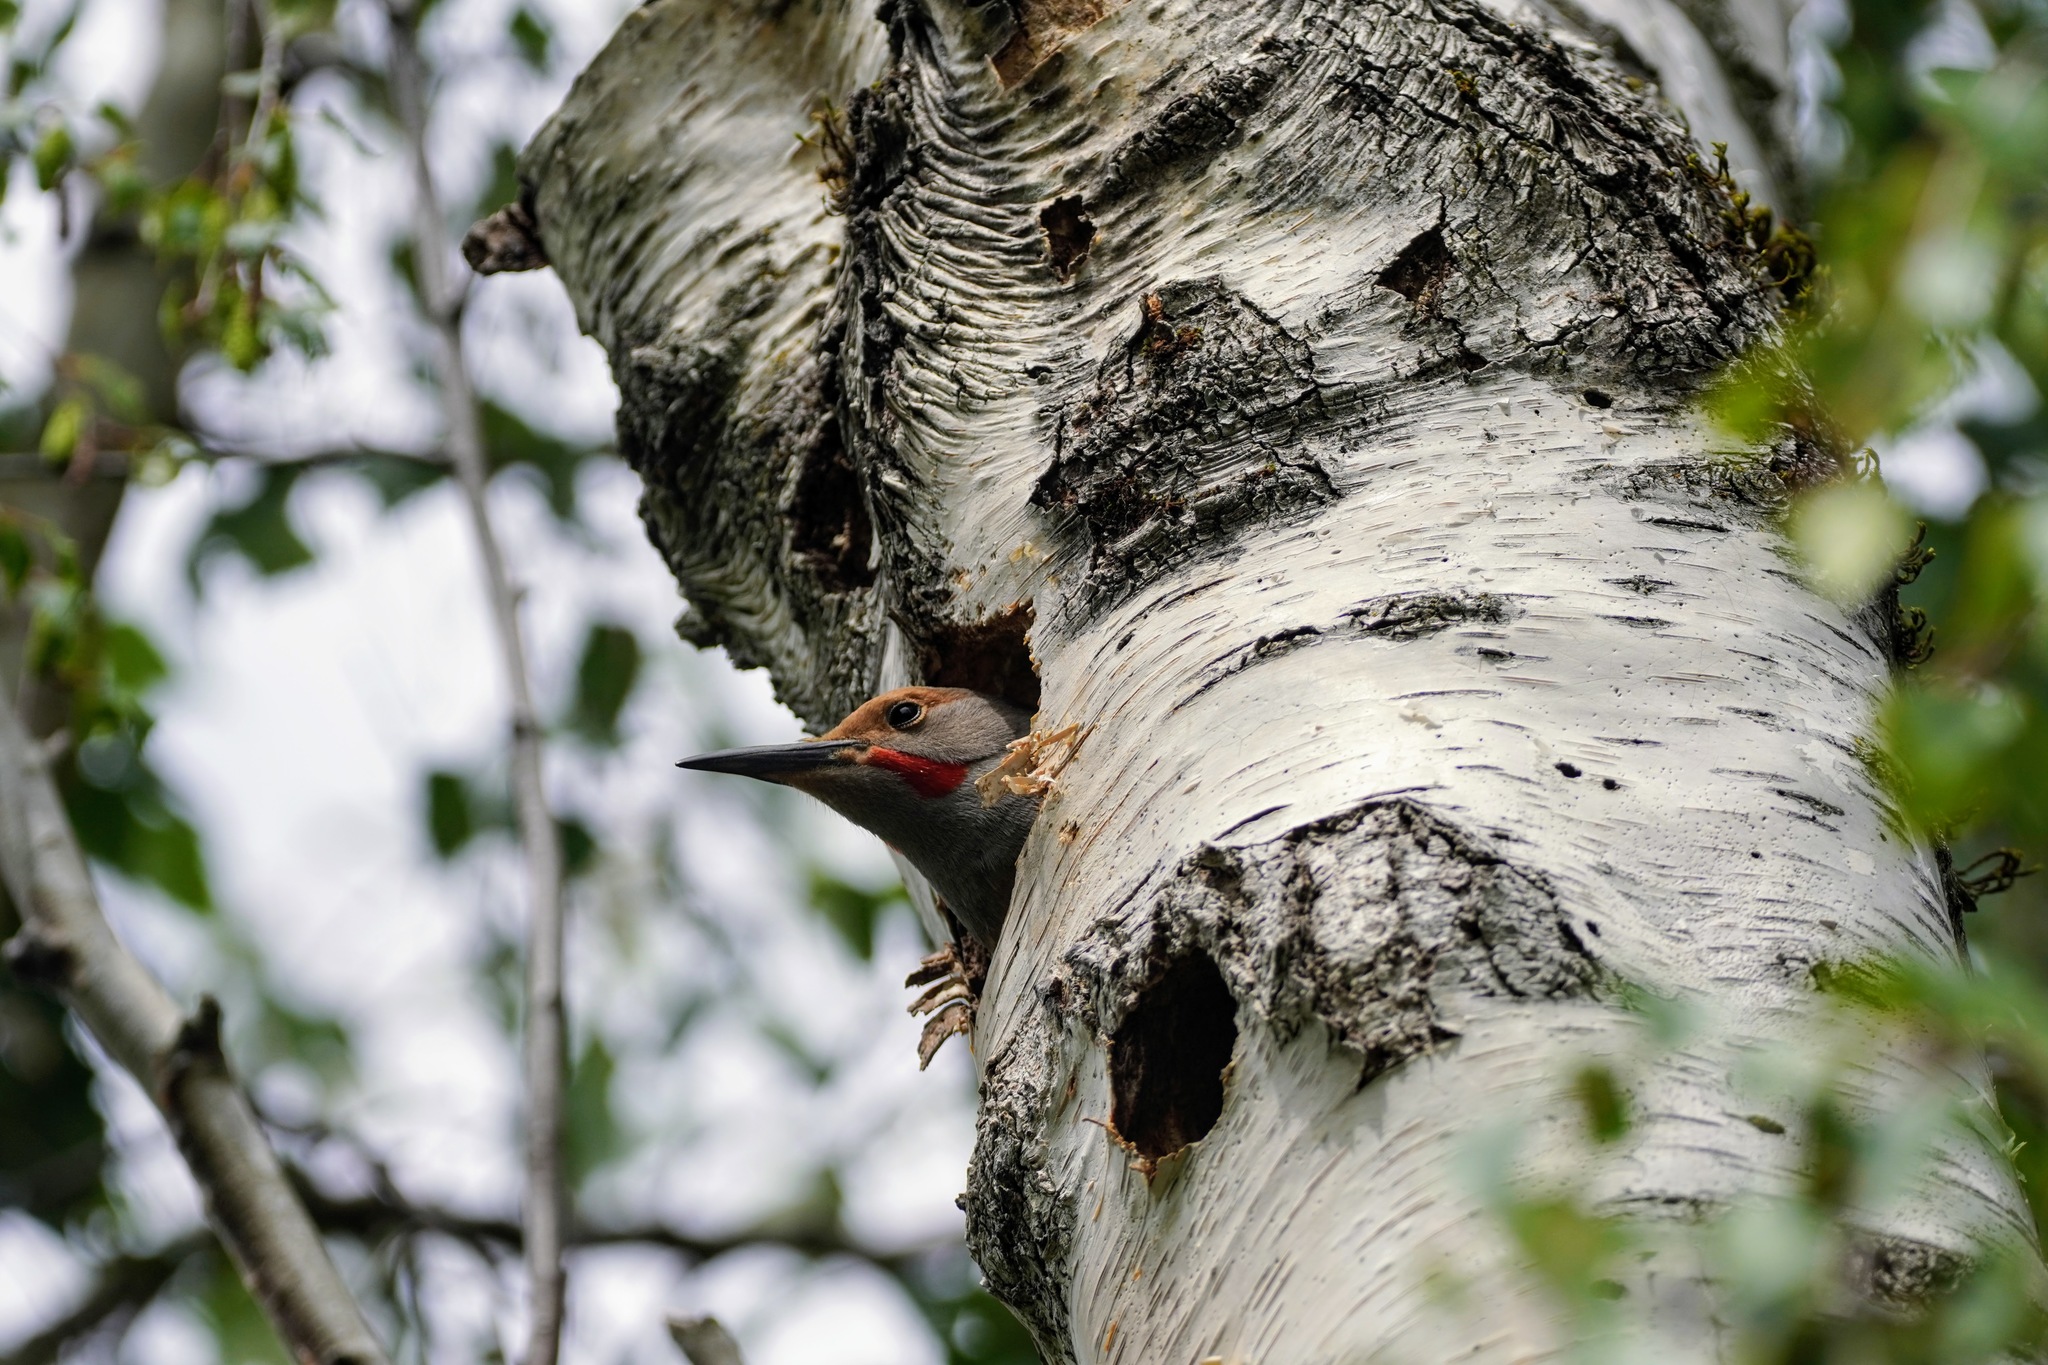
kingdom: Animalia
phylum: Chordata
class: Aves
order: Piciformes
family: Picidae
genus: Colaptes
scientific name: Colaptes auratus
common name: Northern flicker
